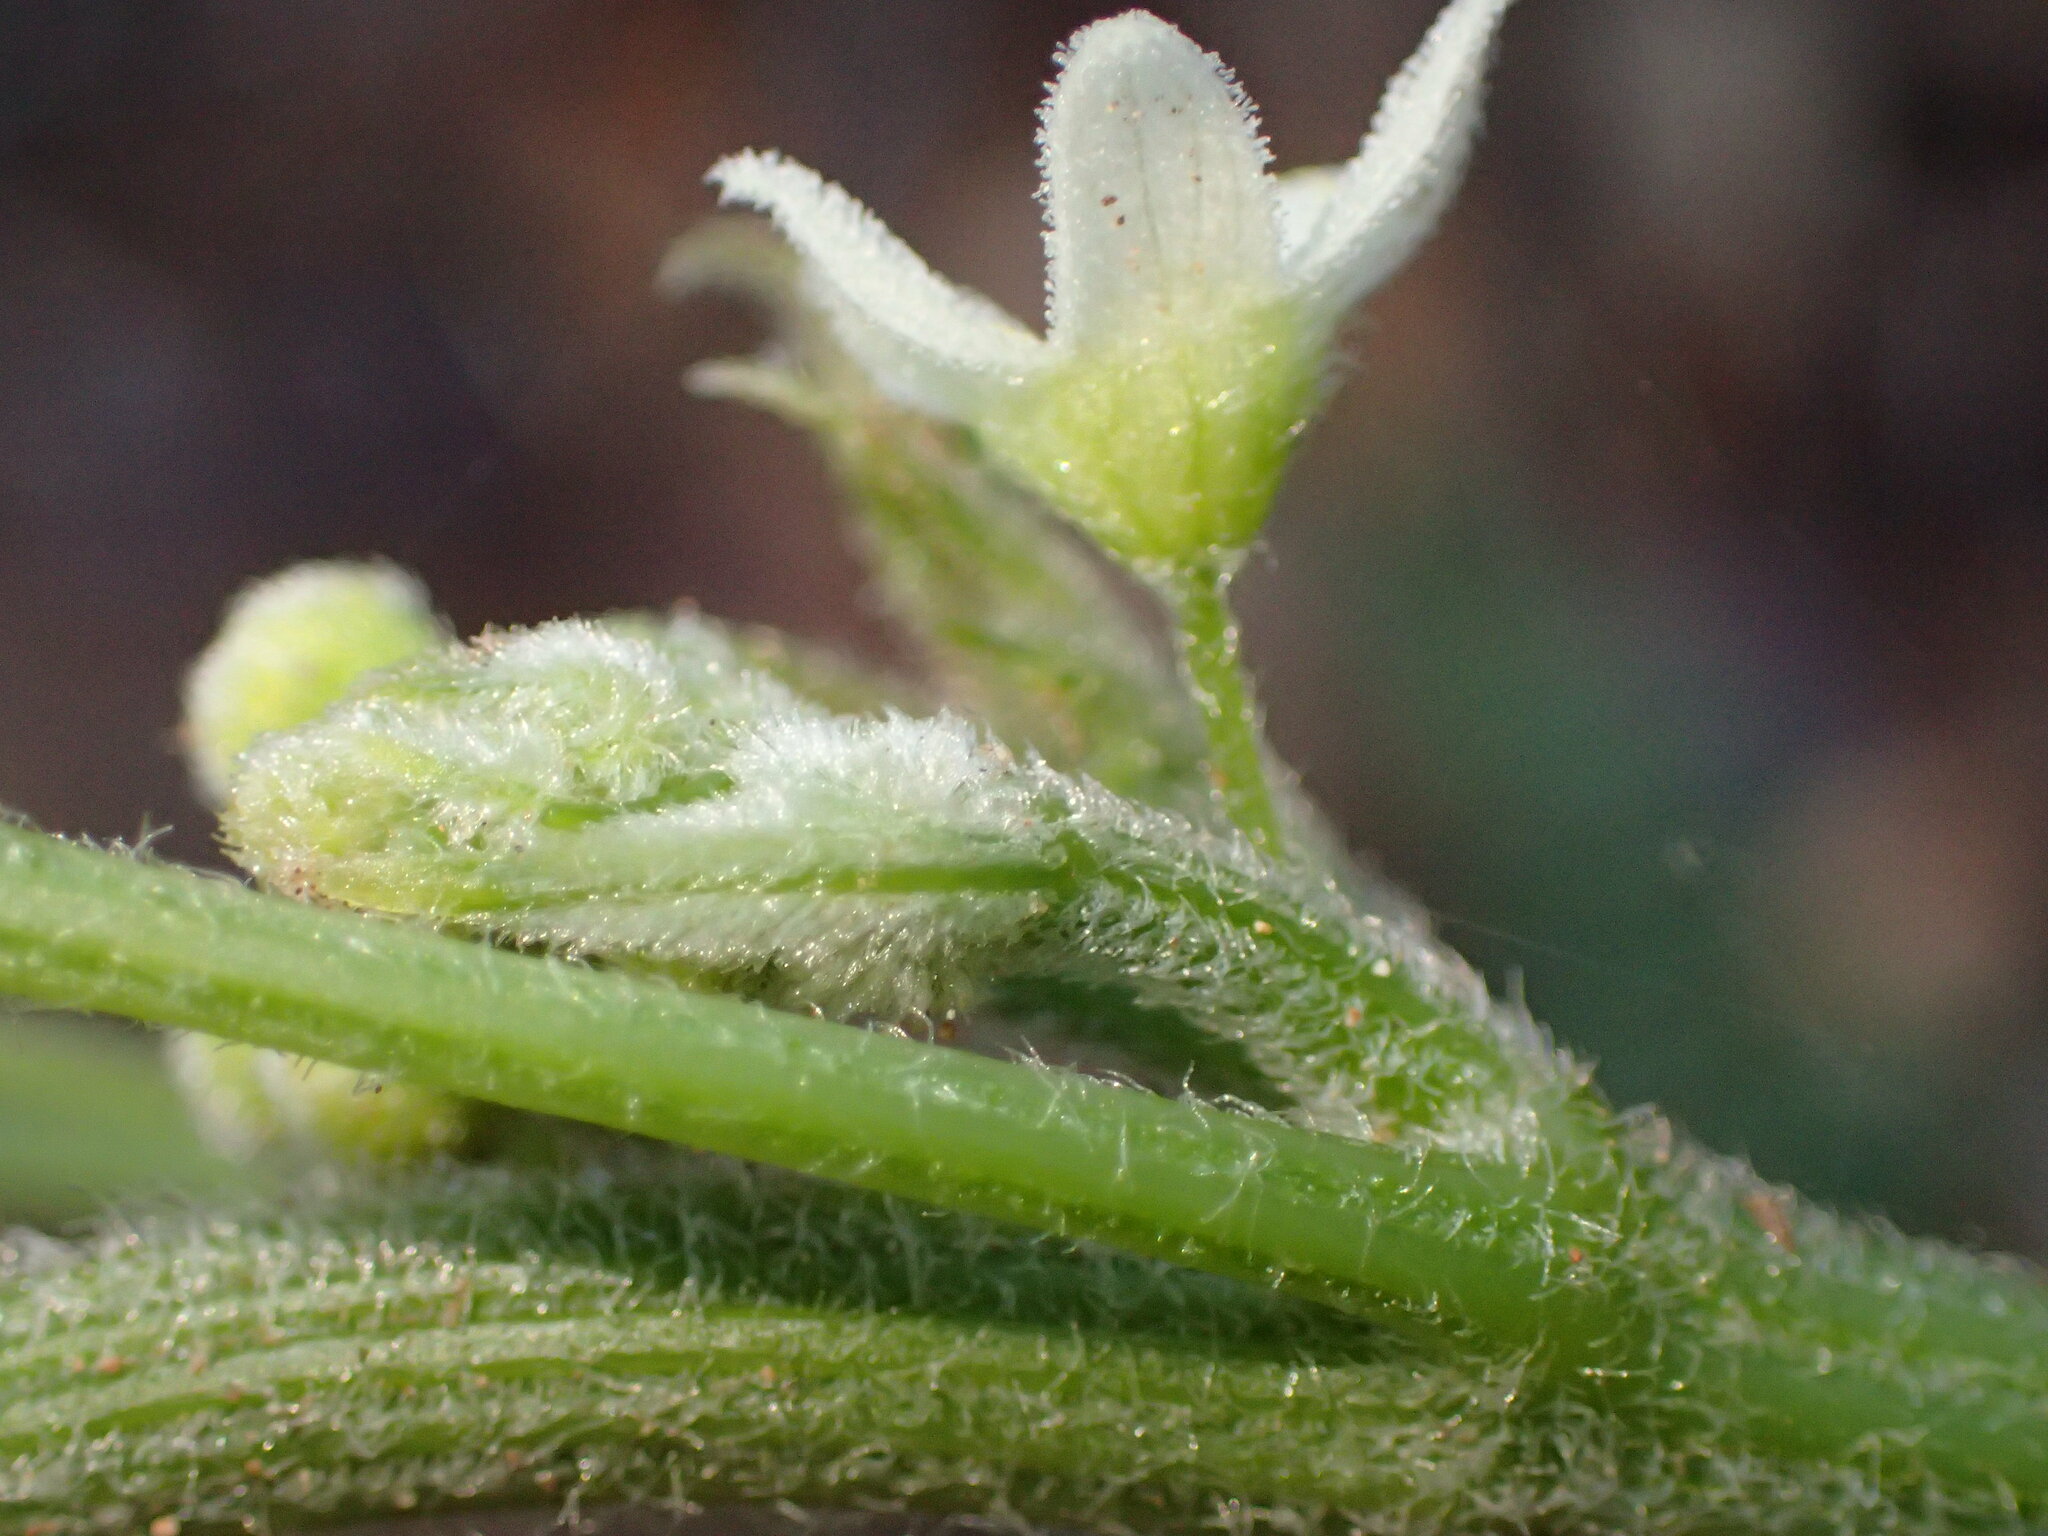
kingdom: Plantae
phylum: Tracheophyta
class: Magnoliopsida
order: Cucurbitales
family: Cucurbitaceae
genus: Marah
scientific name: Marah macrocarpa
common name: Cucamonga manroot
